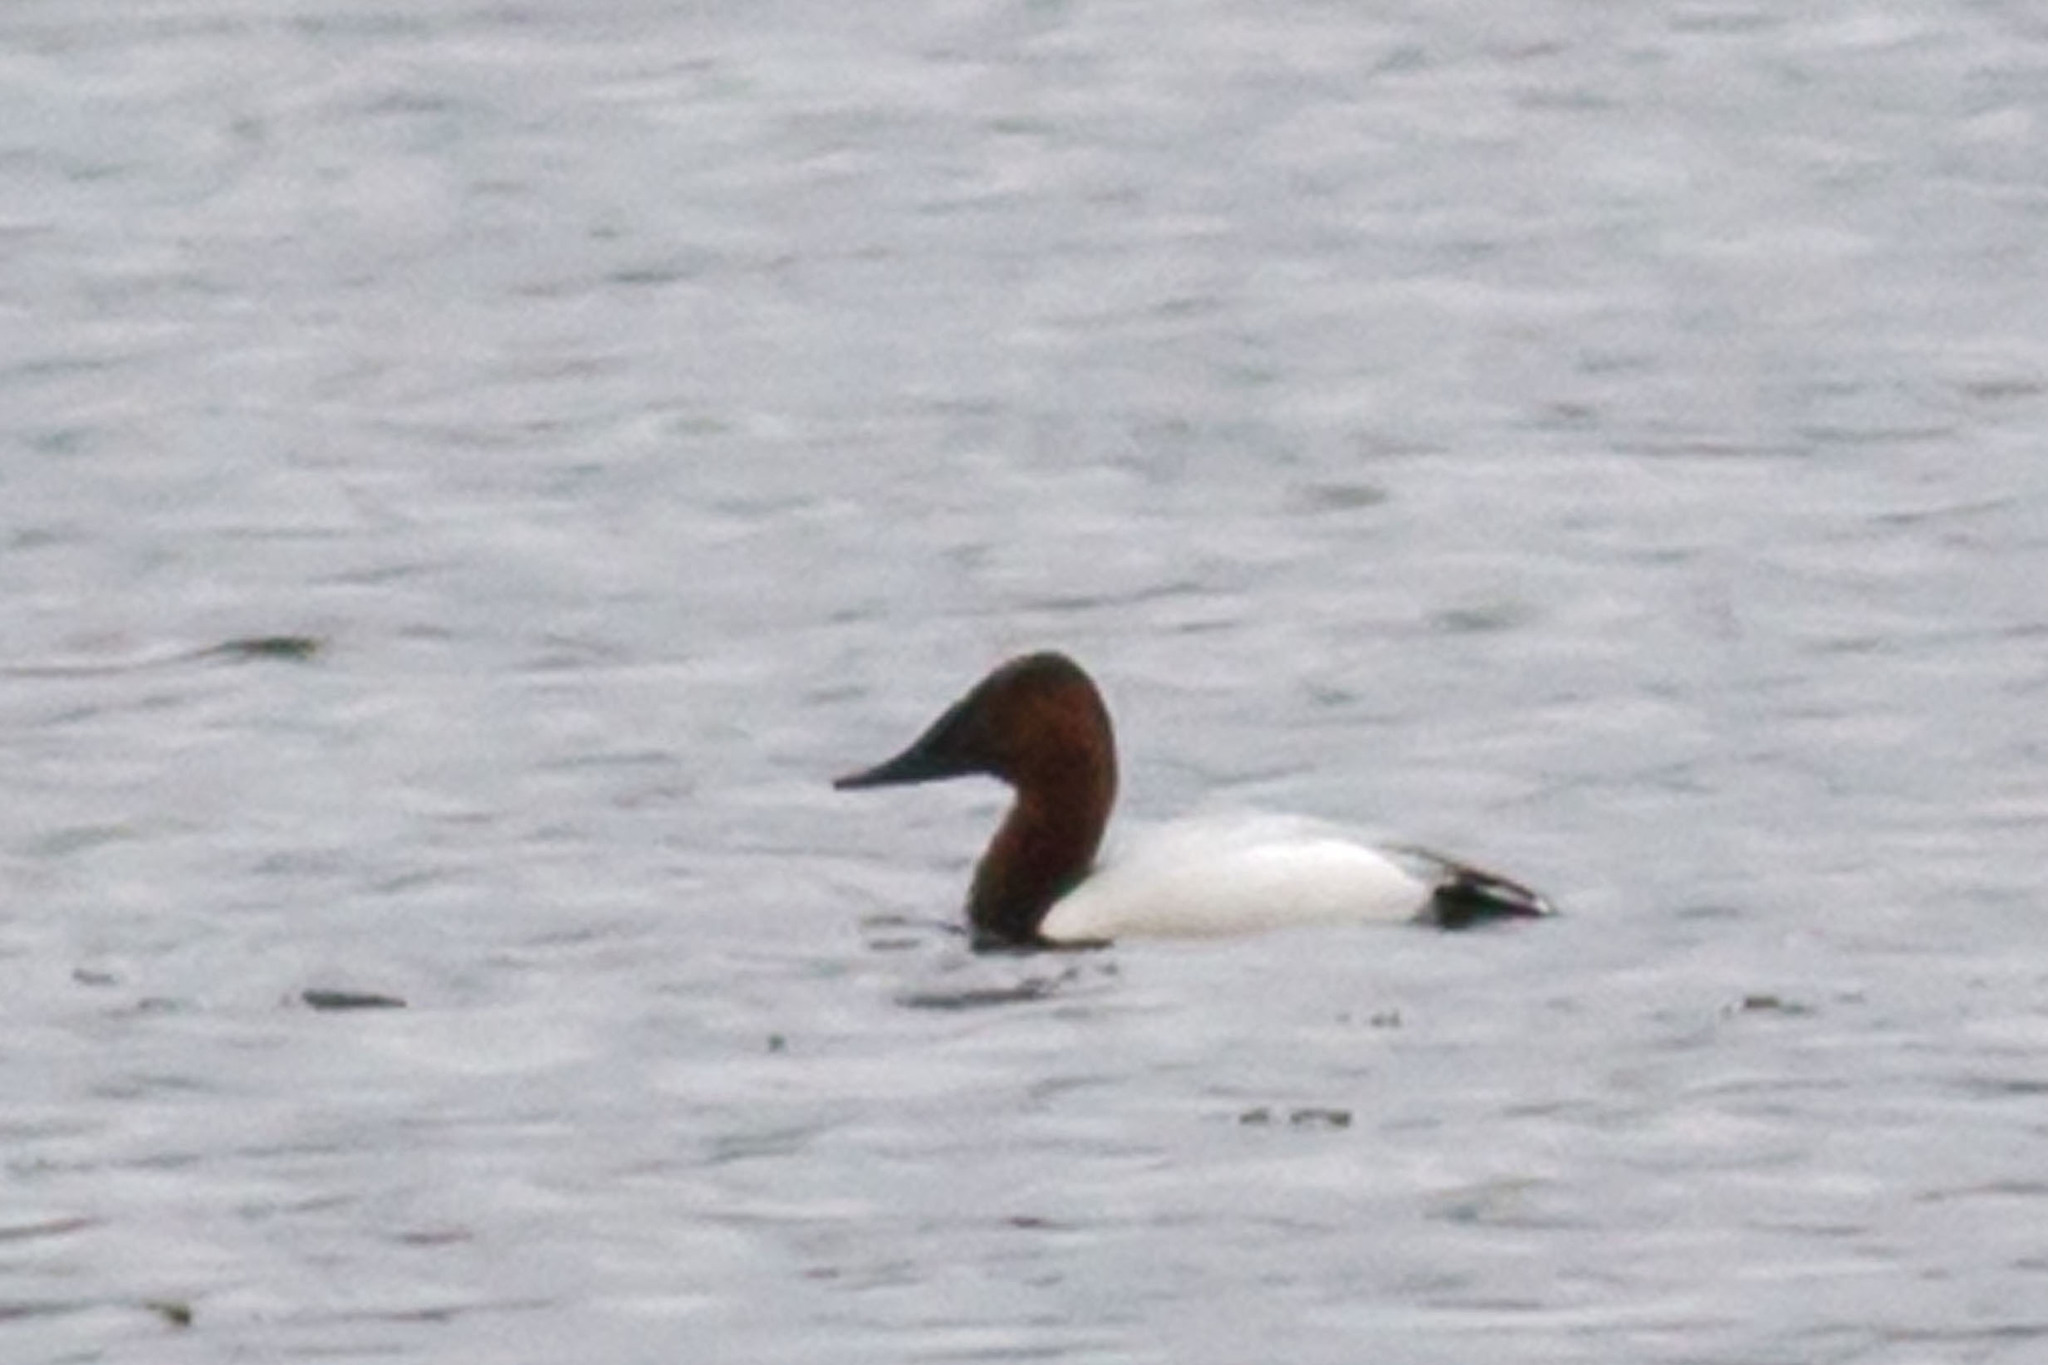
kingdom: Animalia
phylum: Chordata
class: Aves
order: Anseriformes
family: Anatidae
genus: Aythya
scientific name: Aythya valisineria
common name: Canvasback
